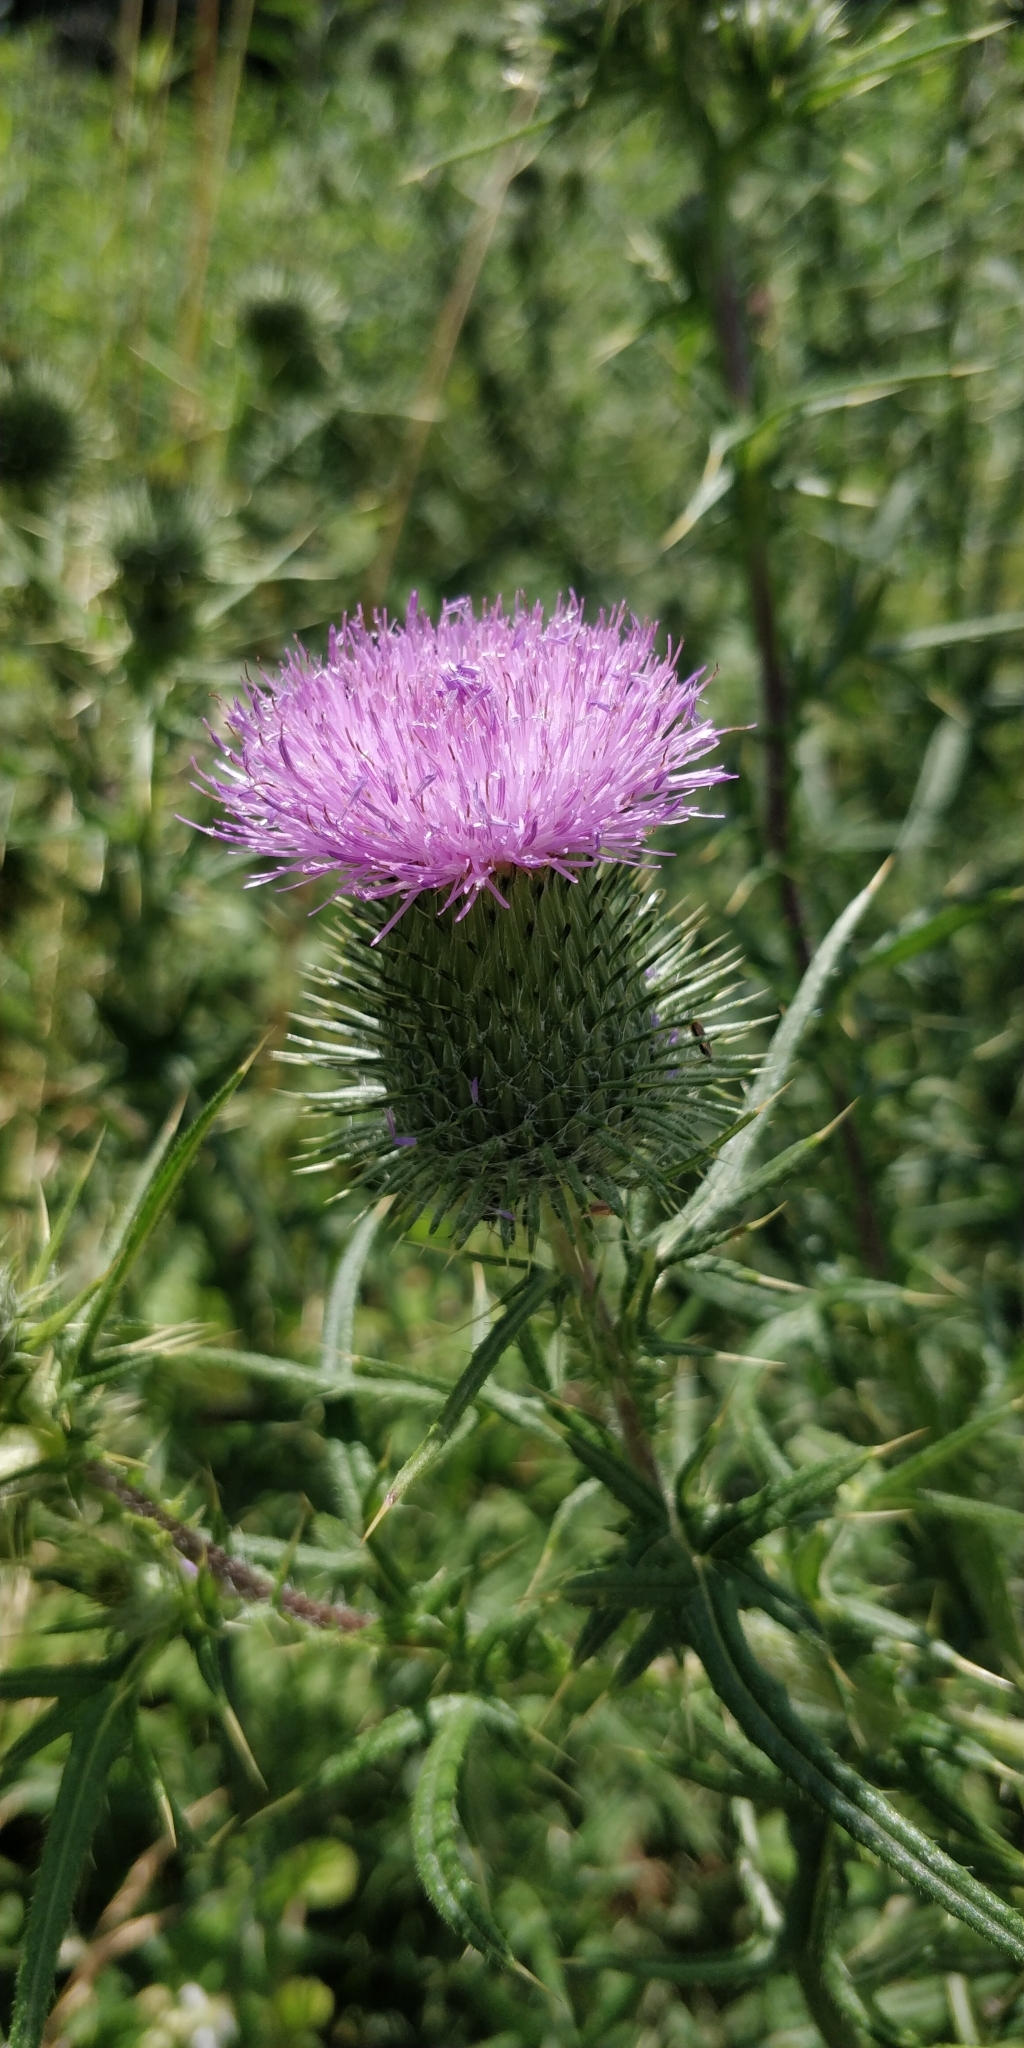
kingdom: Plantae
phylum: Tracheophyta
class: Magnoliopsida
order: Asterales
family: Asteraceae
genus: Cirsium
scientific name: Cirsium vulgare
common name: Bull thistle
